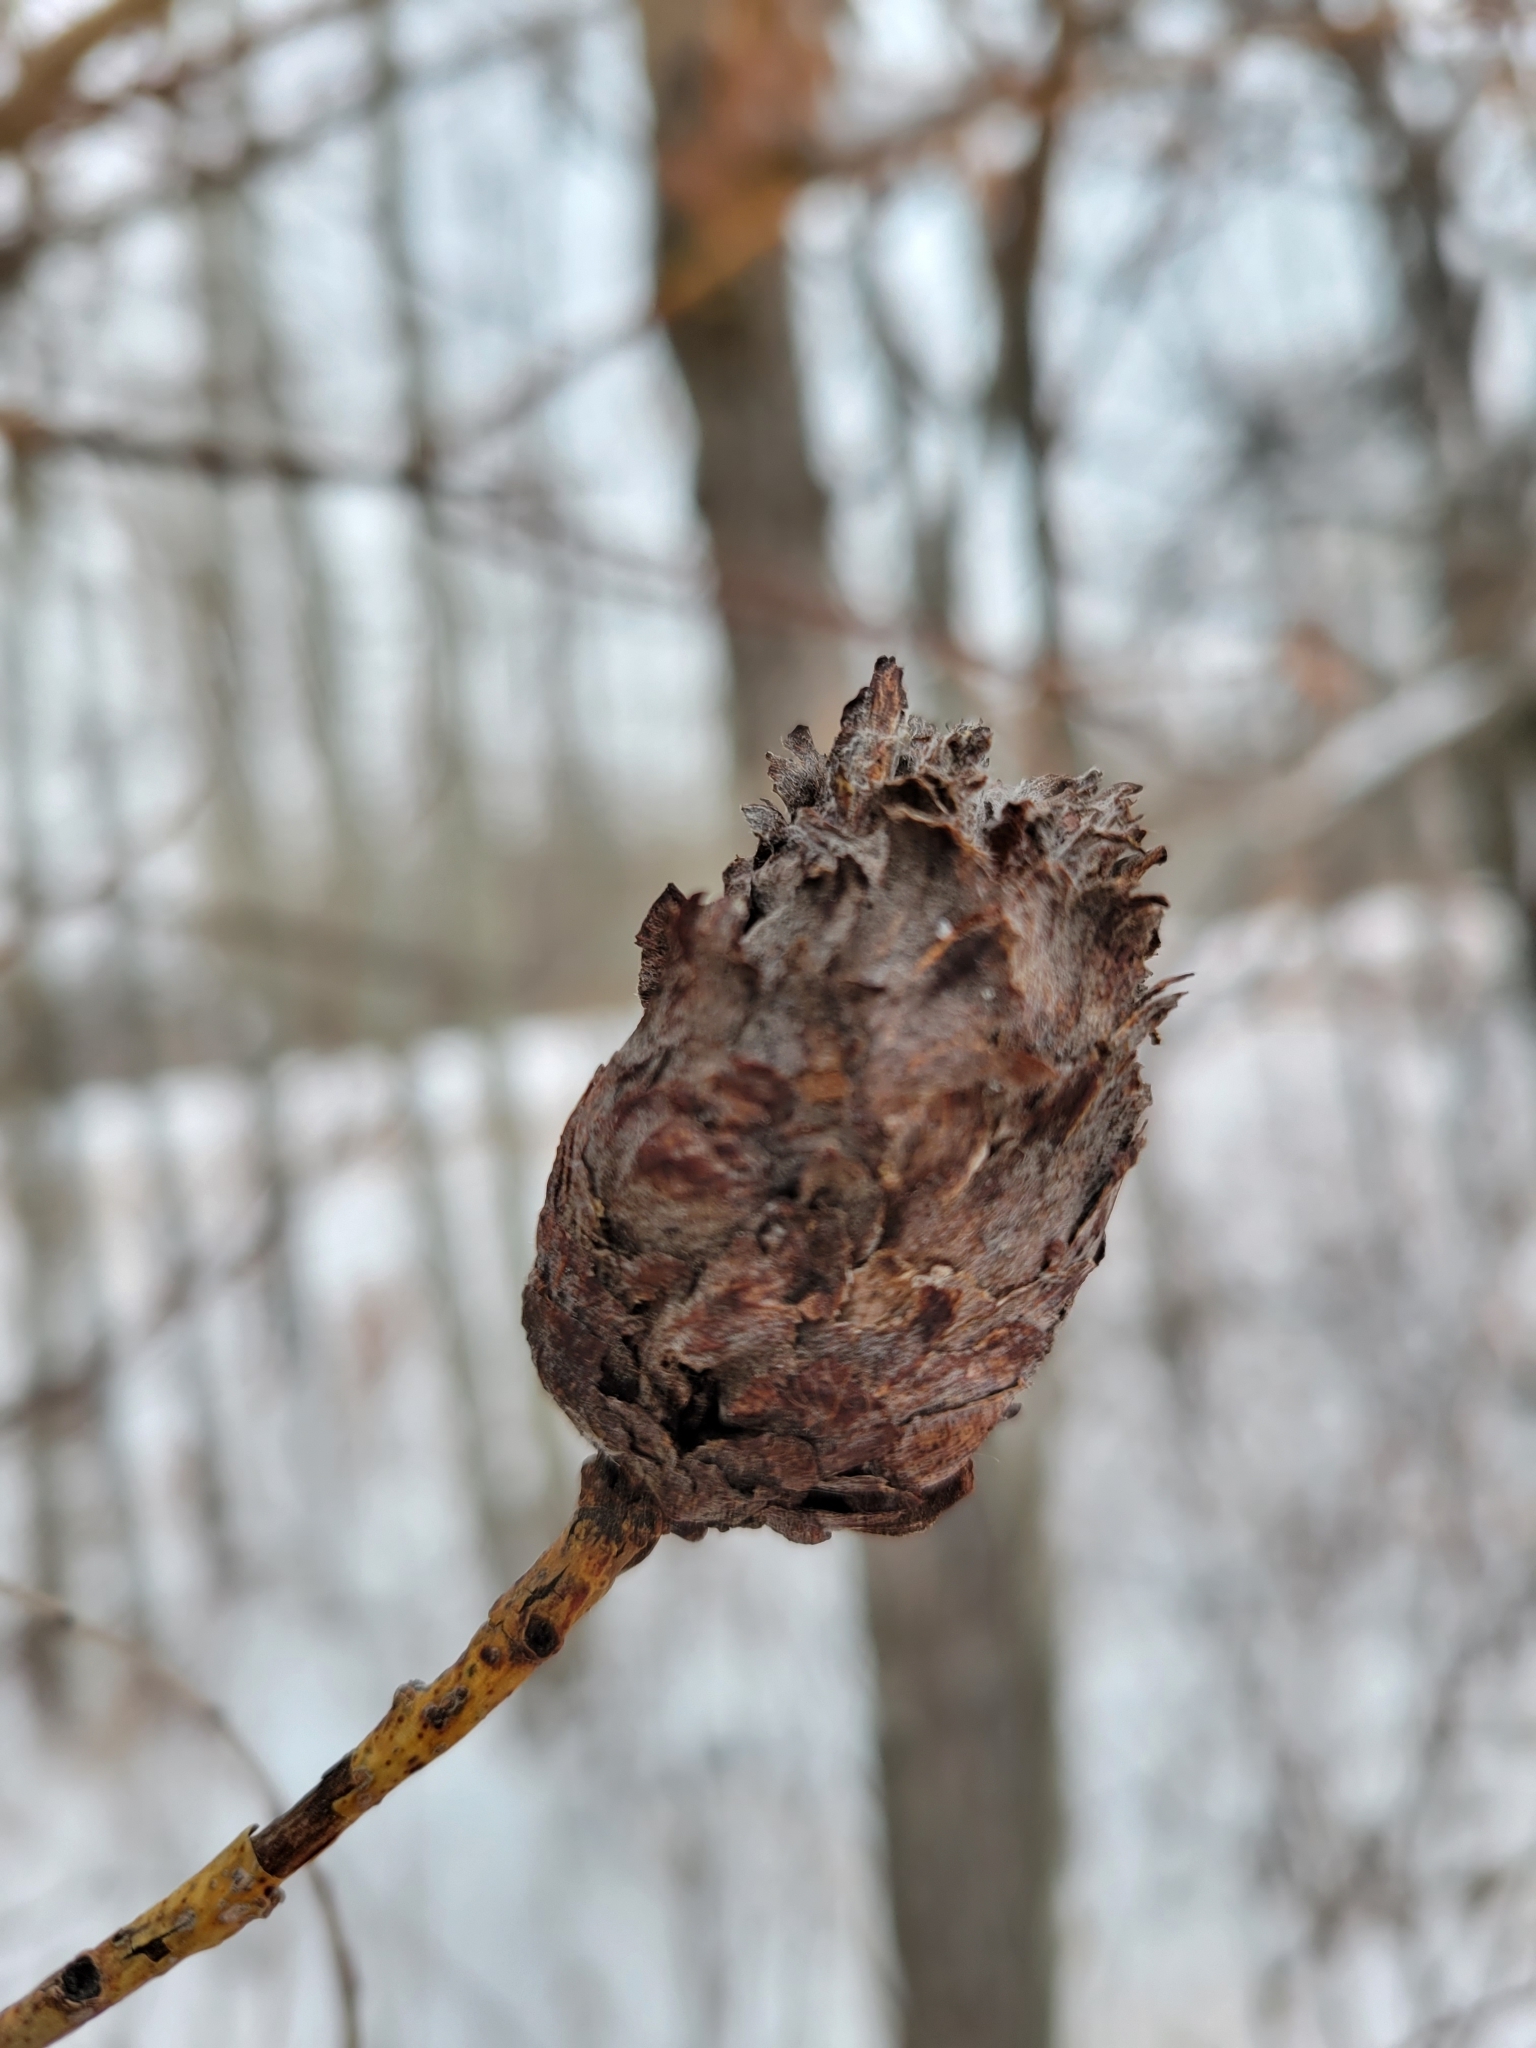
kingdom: Animalia
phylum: Arthropoda
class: Insecta
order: Diptera
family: Cecidomyiidae
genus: Rabdophaga
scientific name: Rabdophaga strobiloides
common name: Willow pinecone gall midge
